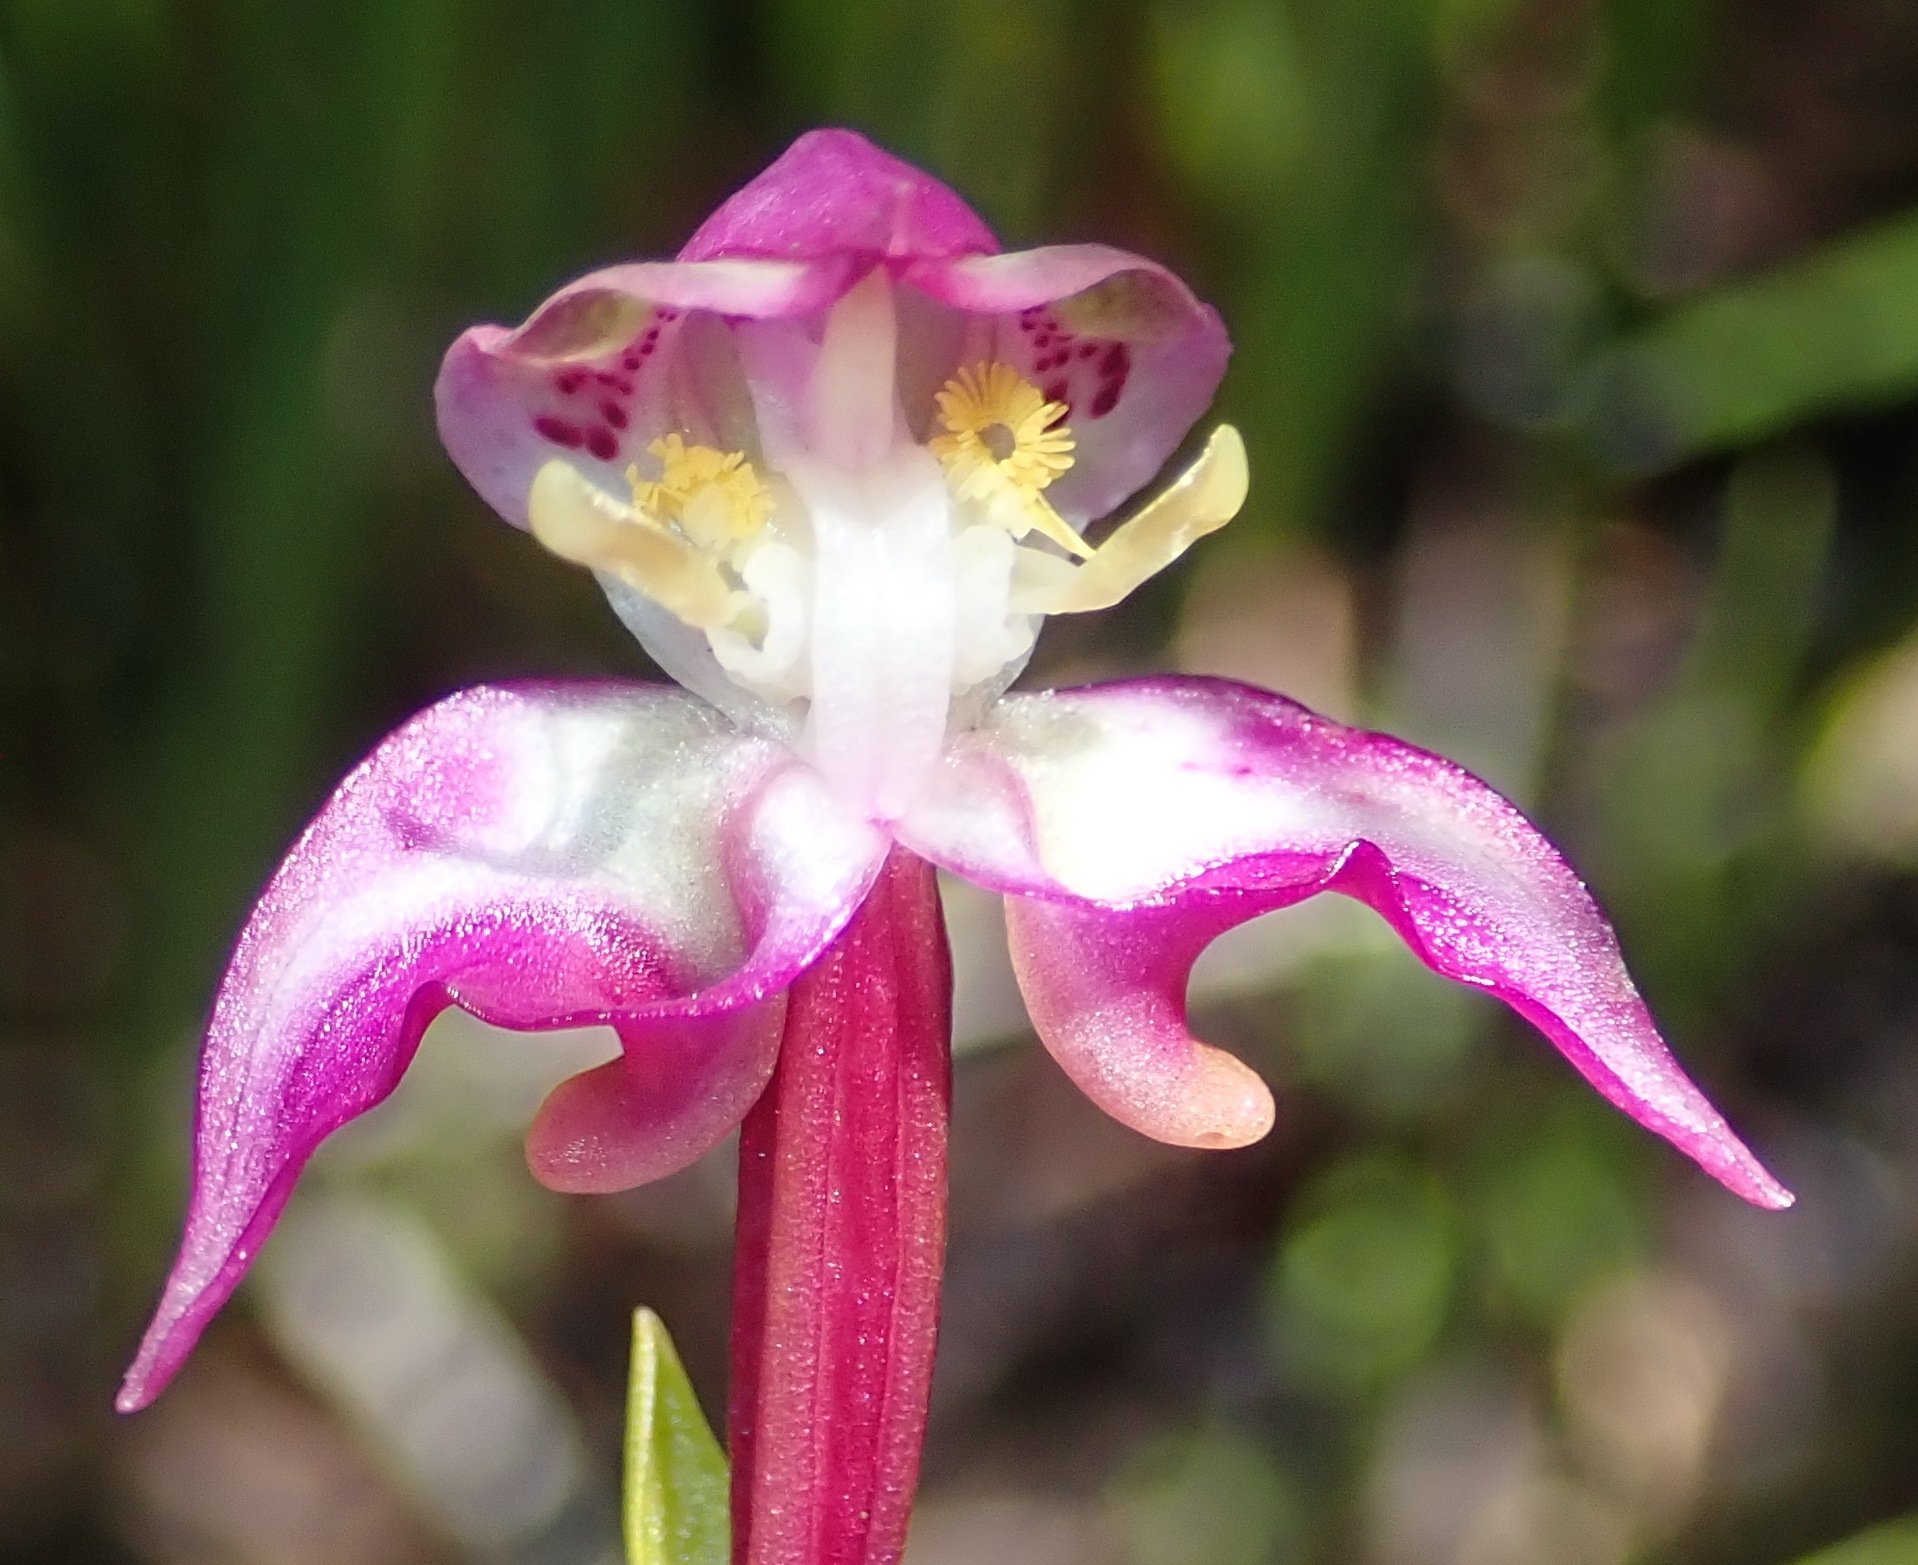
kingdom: Plantae
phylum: Tracheophyta
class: Liliopsida
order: Asparagales
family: Orchidaceae
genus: Disperis
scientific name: Disperis paludosa
